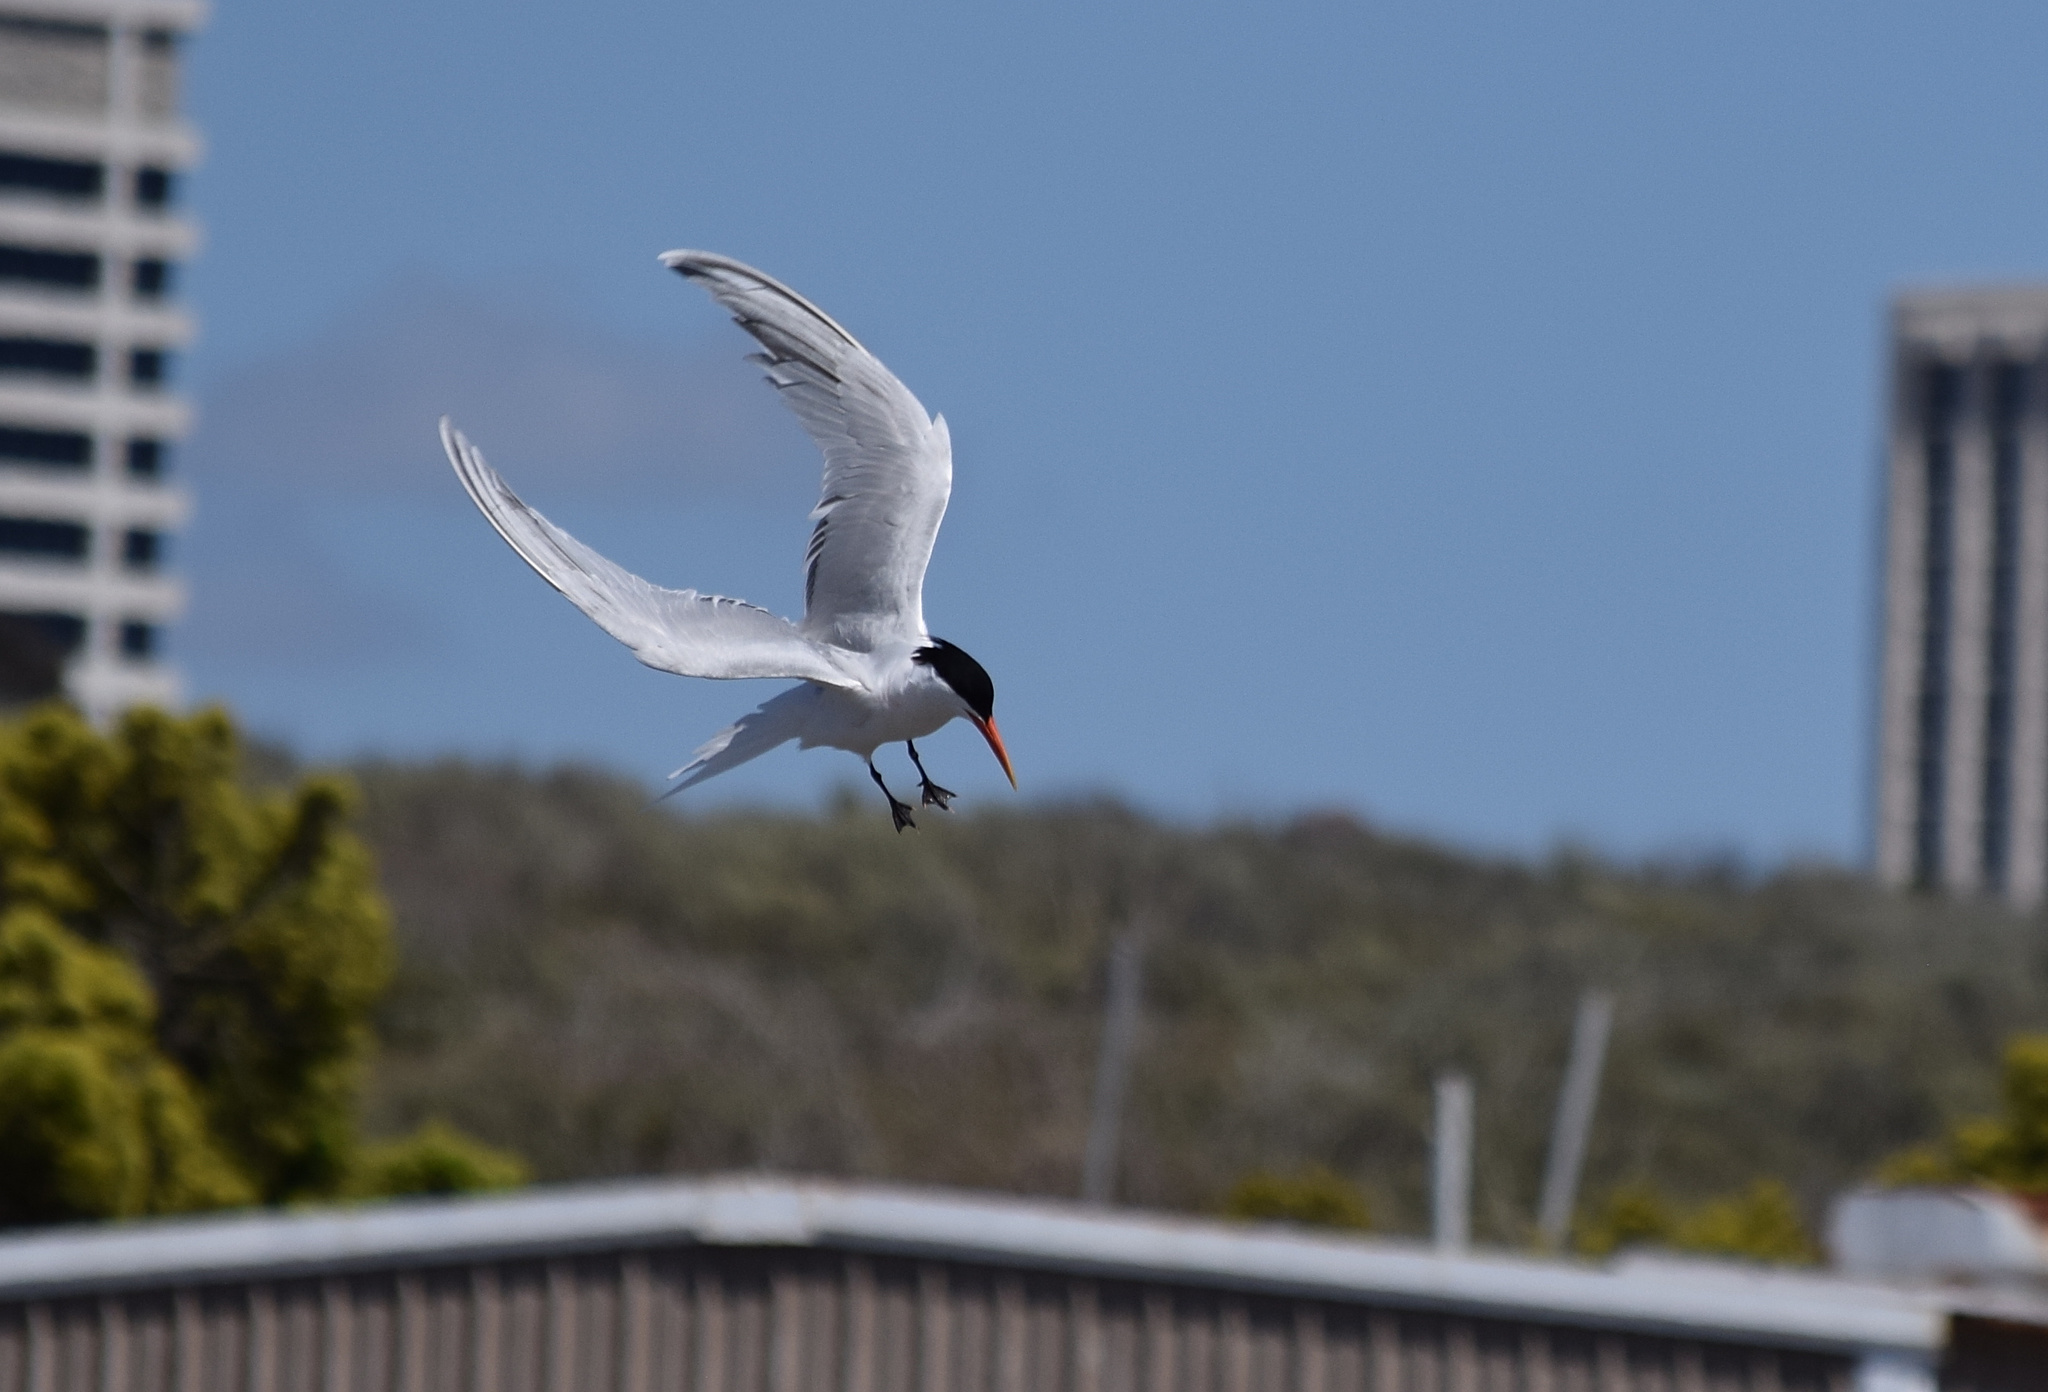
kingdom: Animalia
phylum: Chordata
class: Aves
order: Charadriiformes
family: Laridae
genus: Thalasseus
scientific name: Thalasseus elegans
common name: Elegant tern
